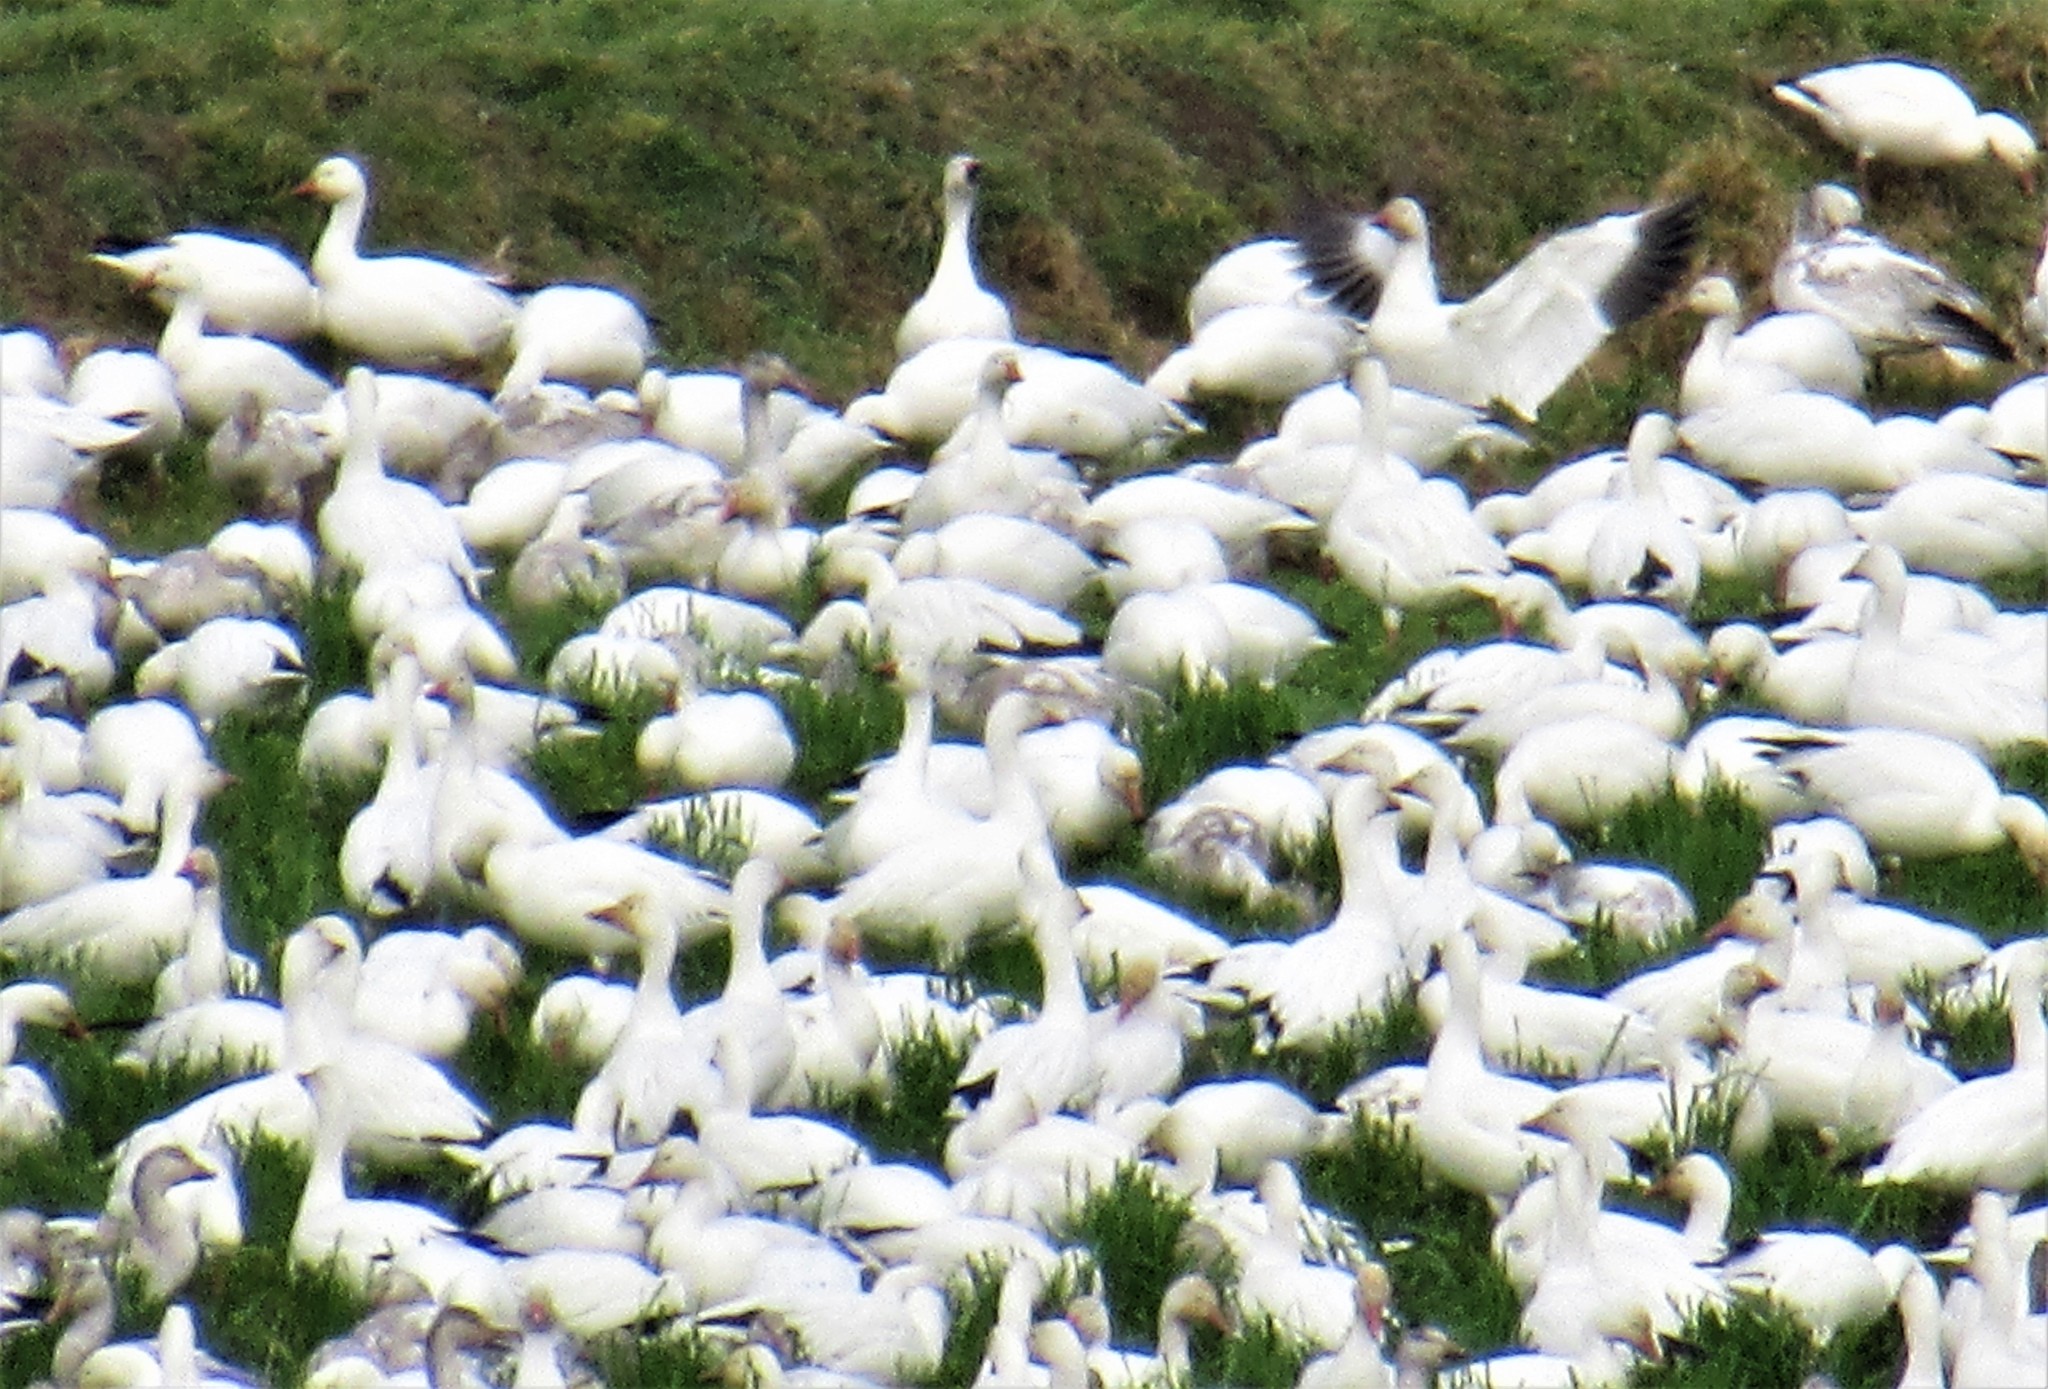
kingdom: Animalia
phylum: Chordata
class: Aves
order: Anseriformes
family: Anatidae
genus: Anser
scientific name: Anser caerulescens
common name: Snow goose
